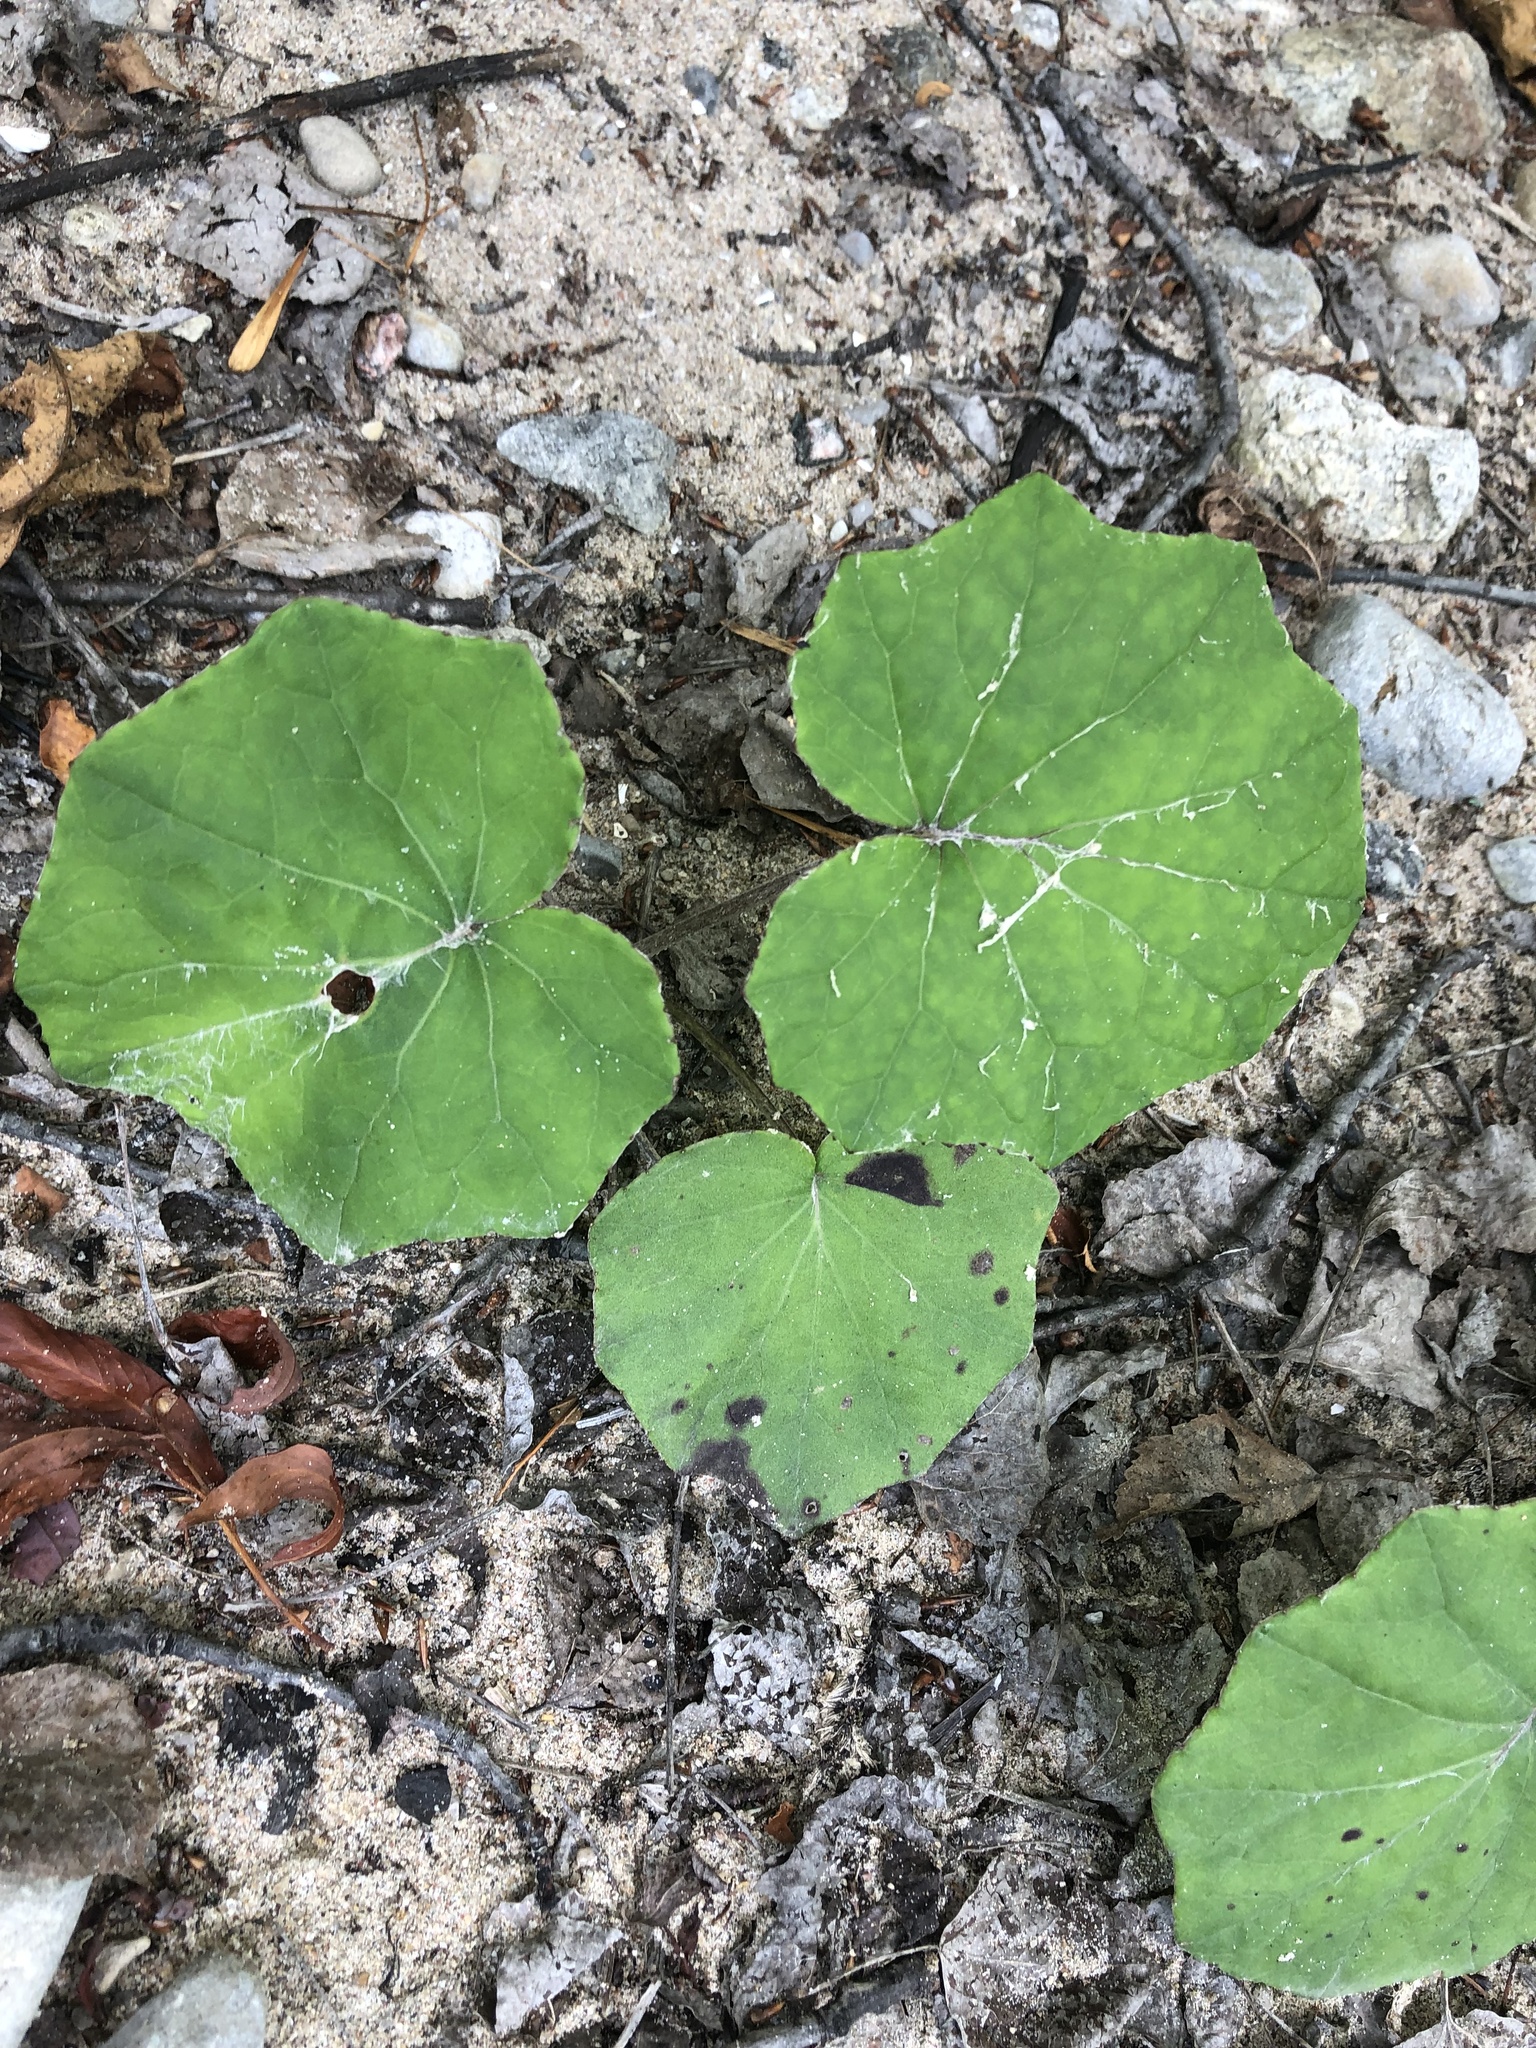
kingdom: Plantae
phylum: Tracheophyta
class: Magnoliopsida
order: Asterales
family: Asteraceae
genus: Tussilago
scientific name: Tussilago farfara
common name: Coltsfoot
